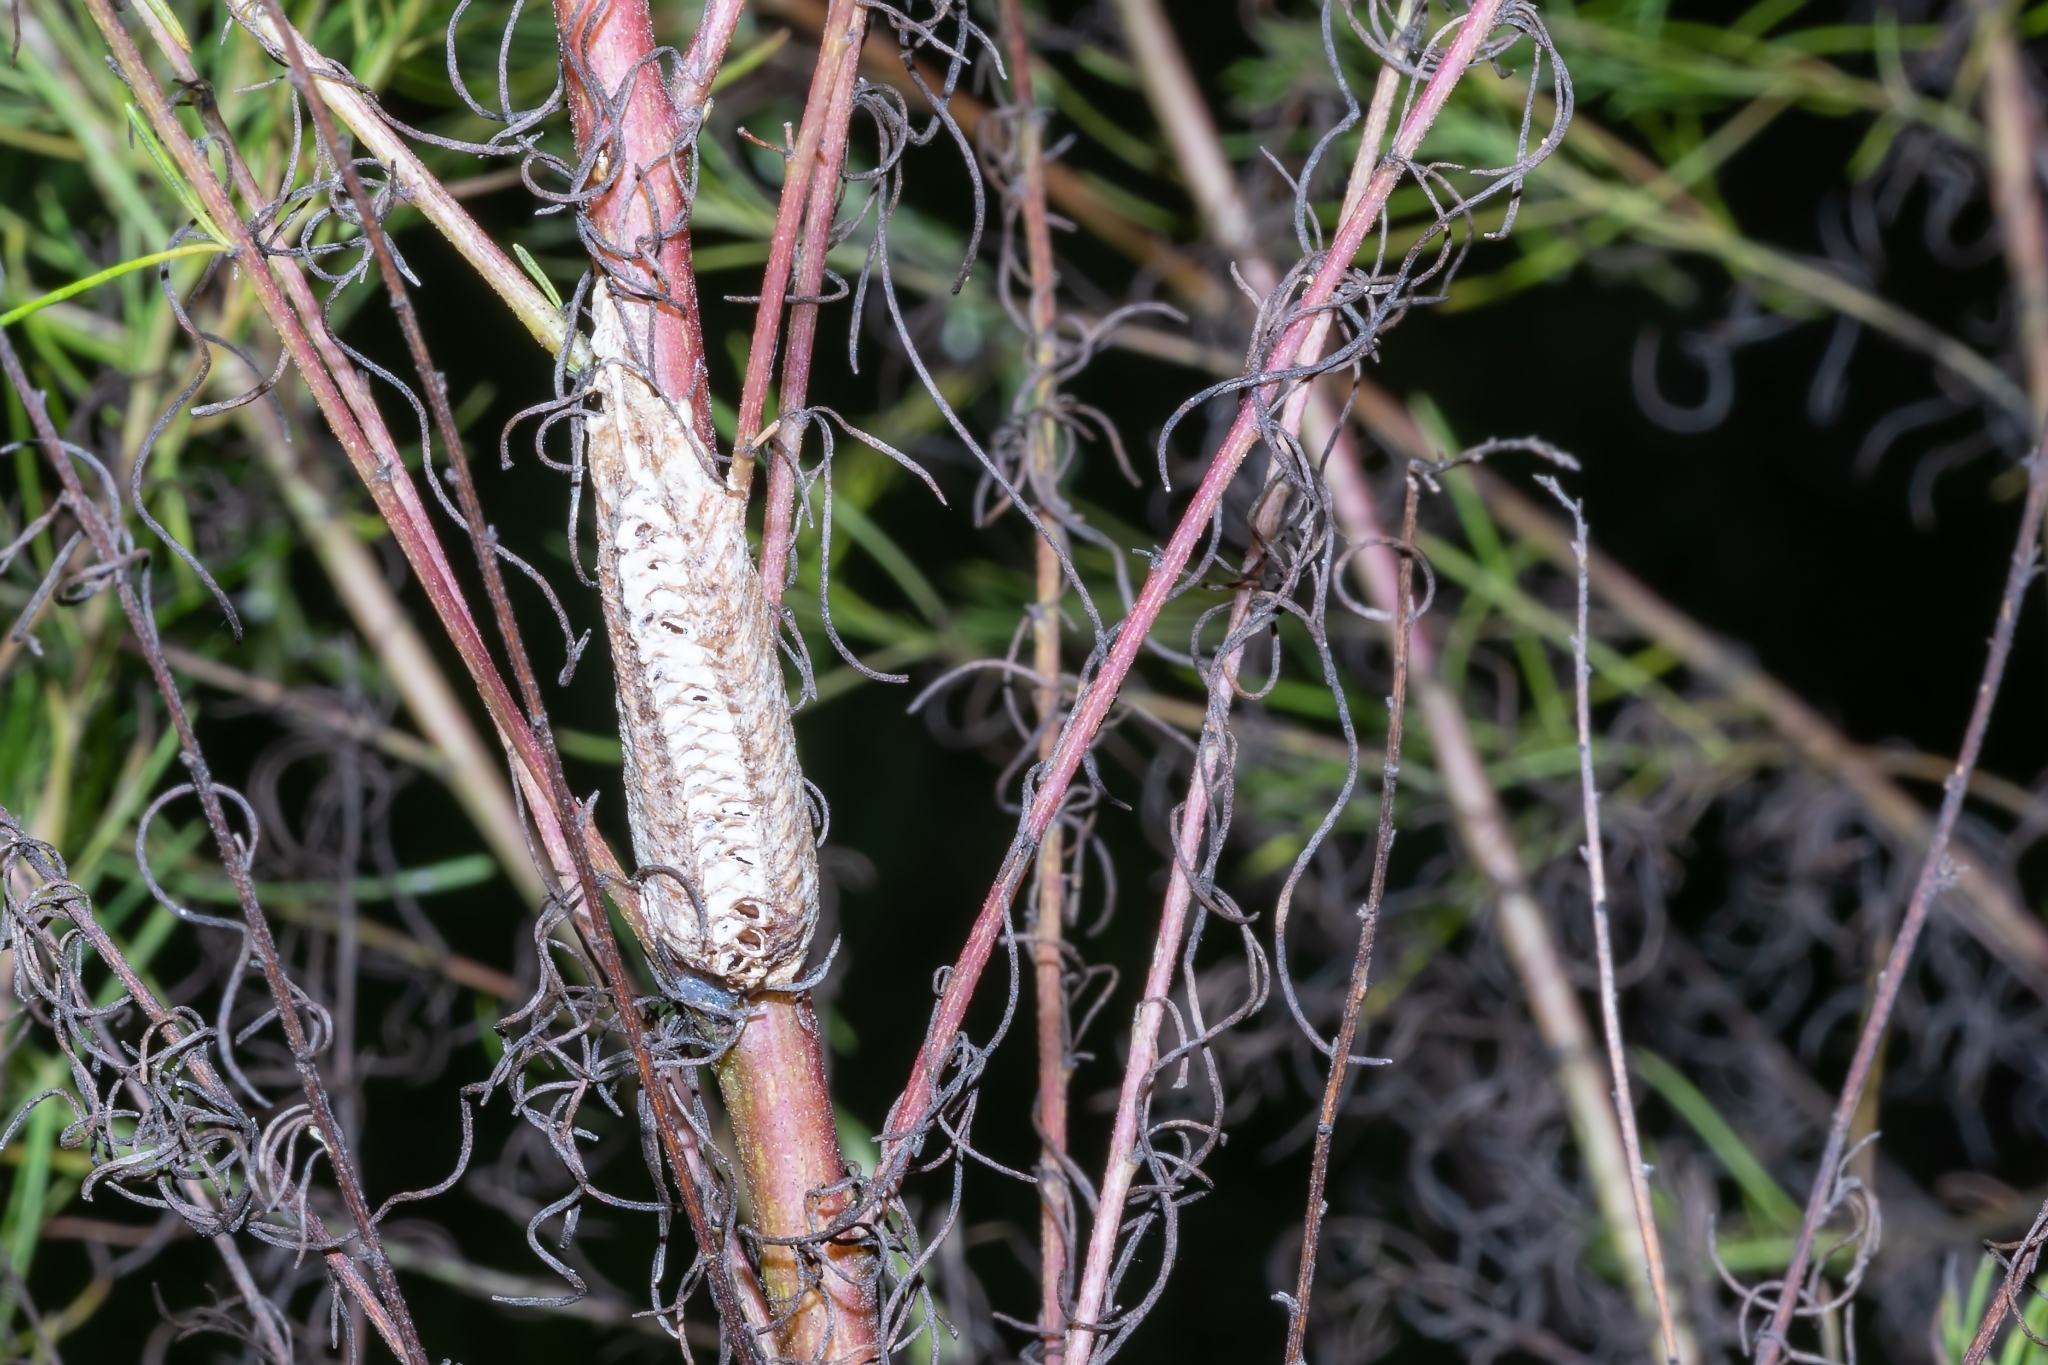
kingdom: Animalia
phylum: Arthropoda
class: Insecta
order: Mantodea
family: Mantidae
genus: Stagmomantis
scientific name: Stagmomantis floridensis
